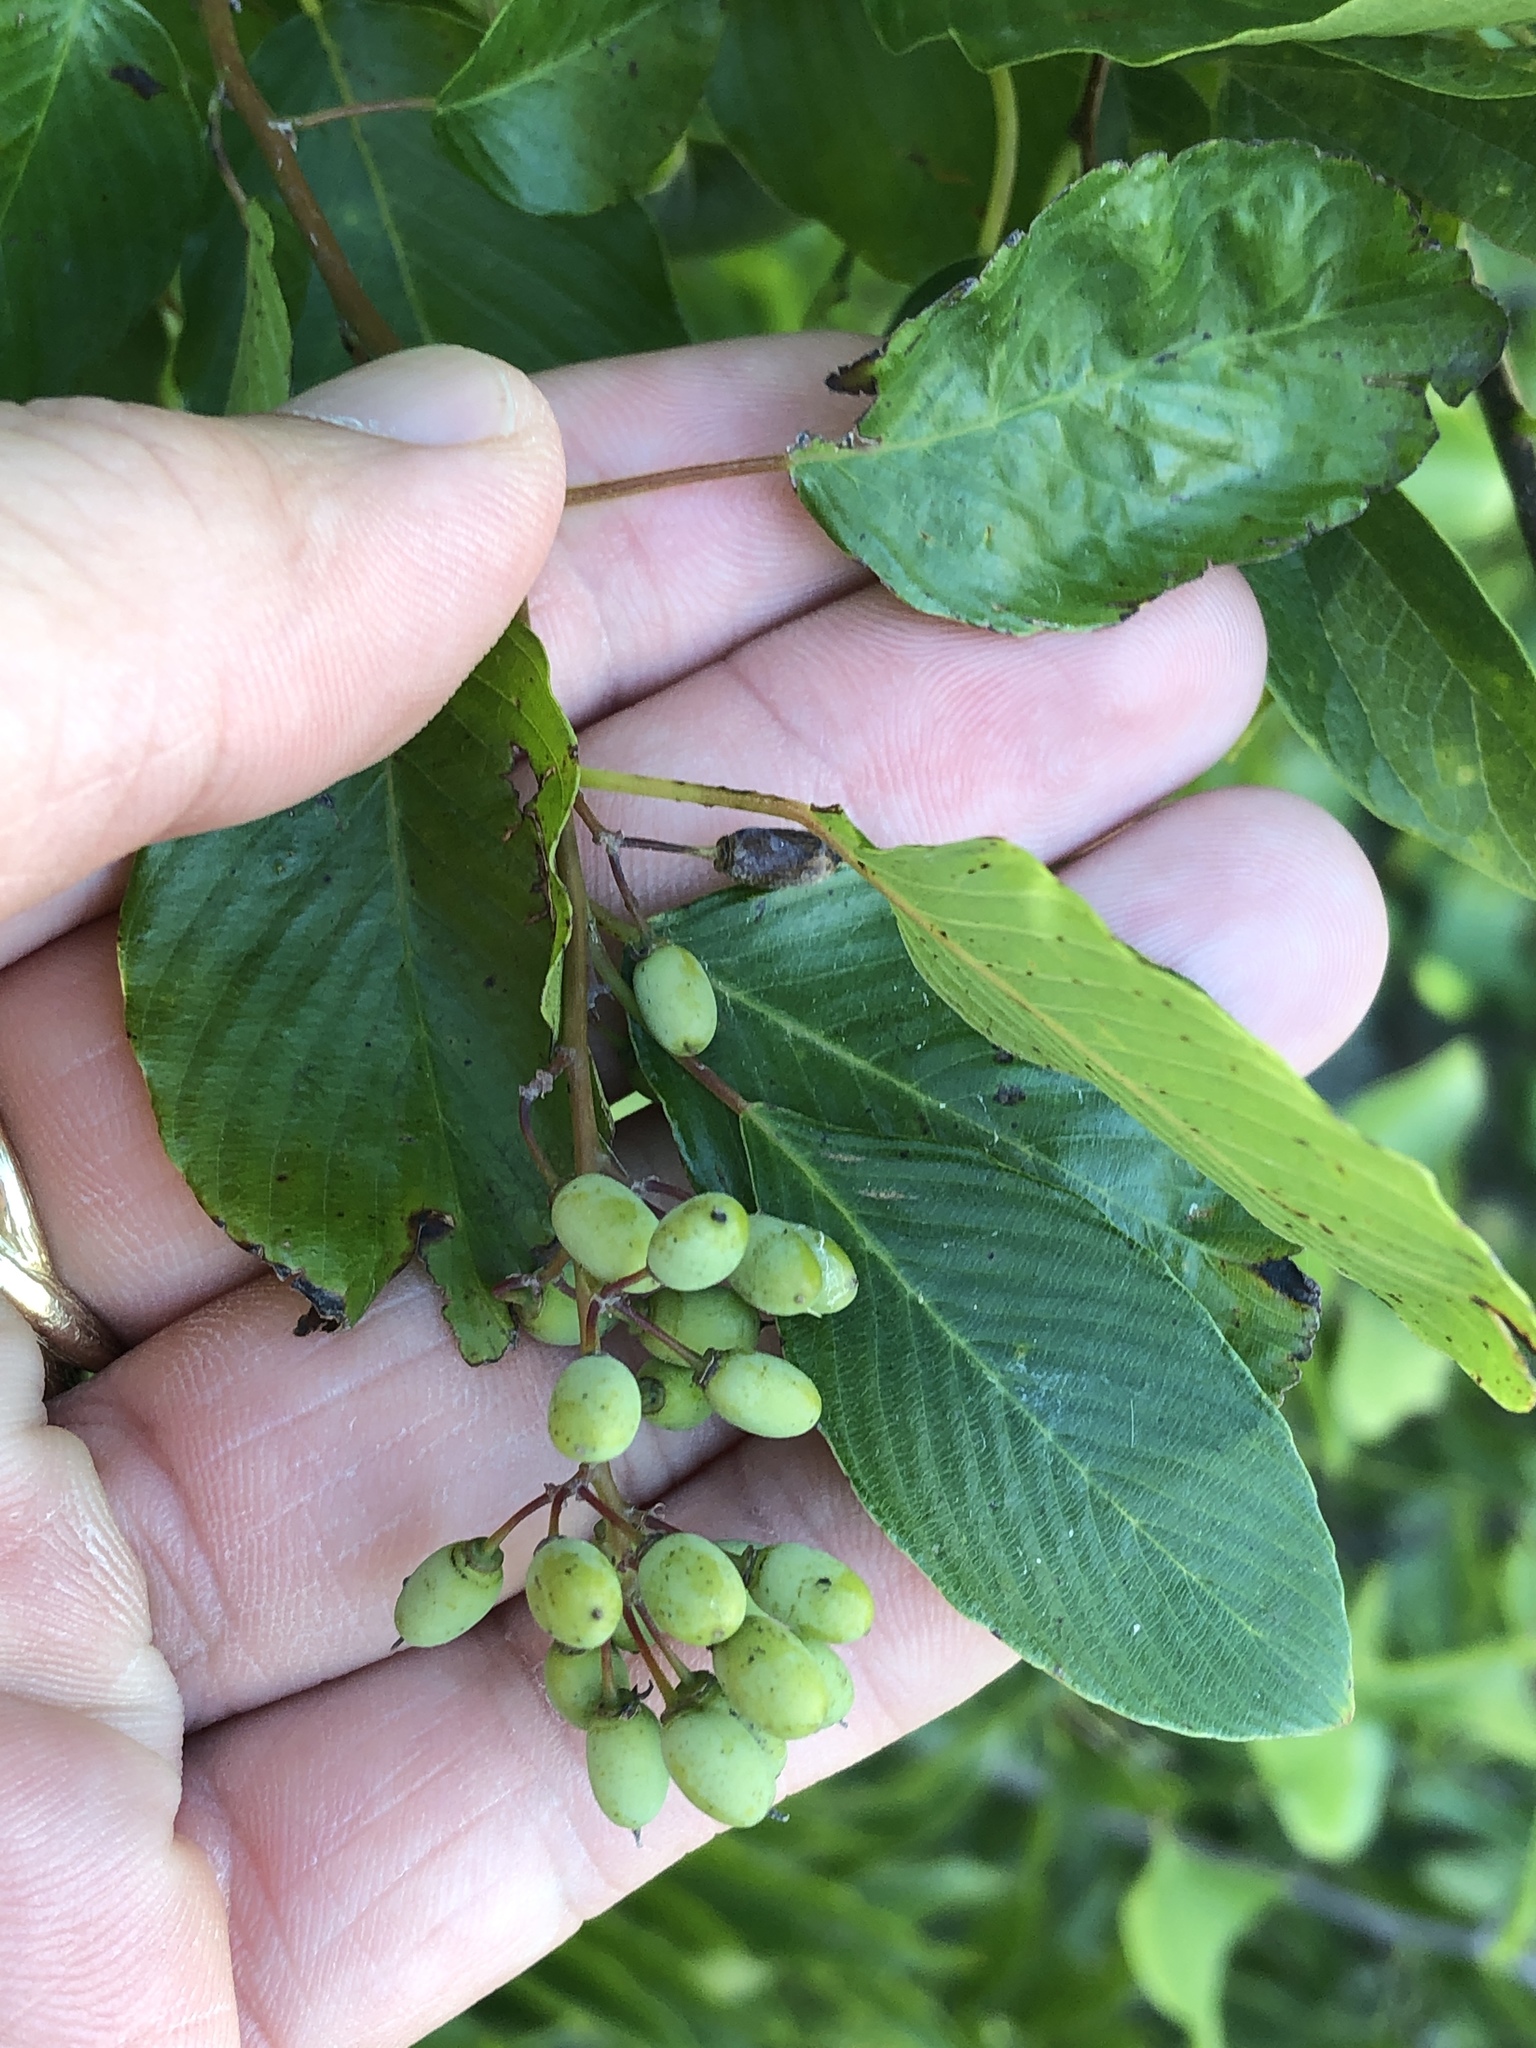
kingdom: Plantae
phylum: Tracheophyta
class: Magnoliopsida
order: Rosales
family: Rhamnaceae
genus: Berchemia
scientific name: Berchemia scandens
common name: Supplejack
